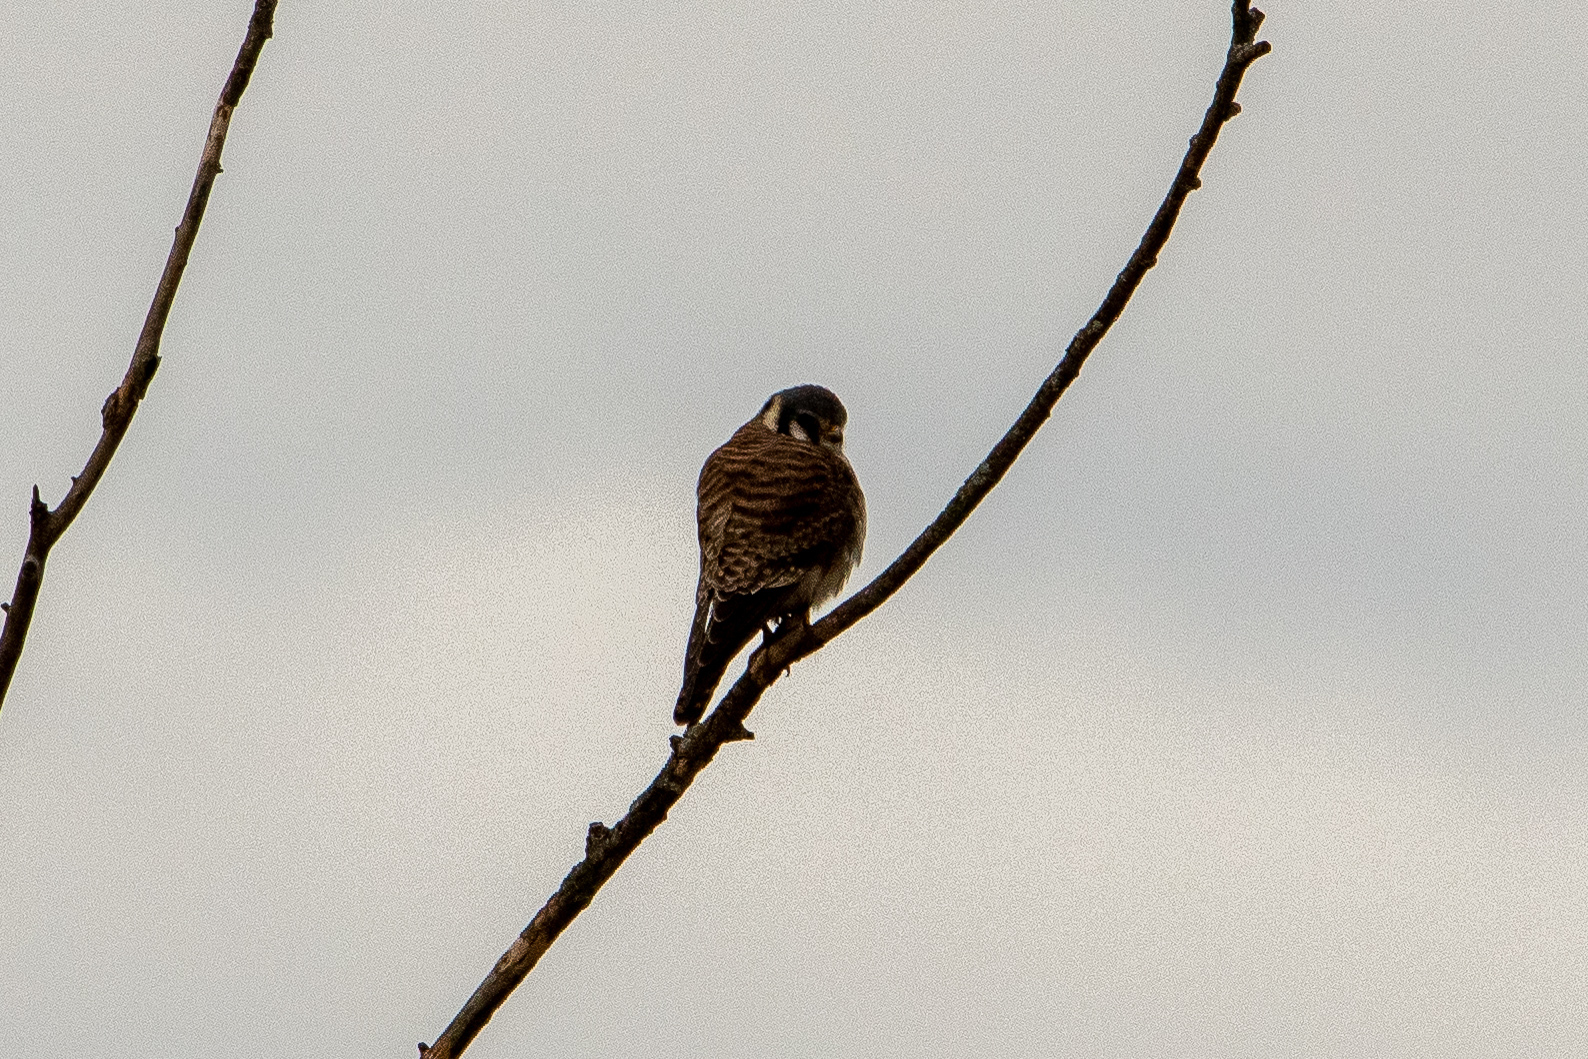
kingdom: Animalia
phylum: Chordata
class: Aves
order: Falconiformes
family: Falconidae
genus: Falco
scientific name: Falco sparverius
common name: American kestrel
